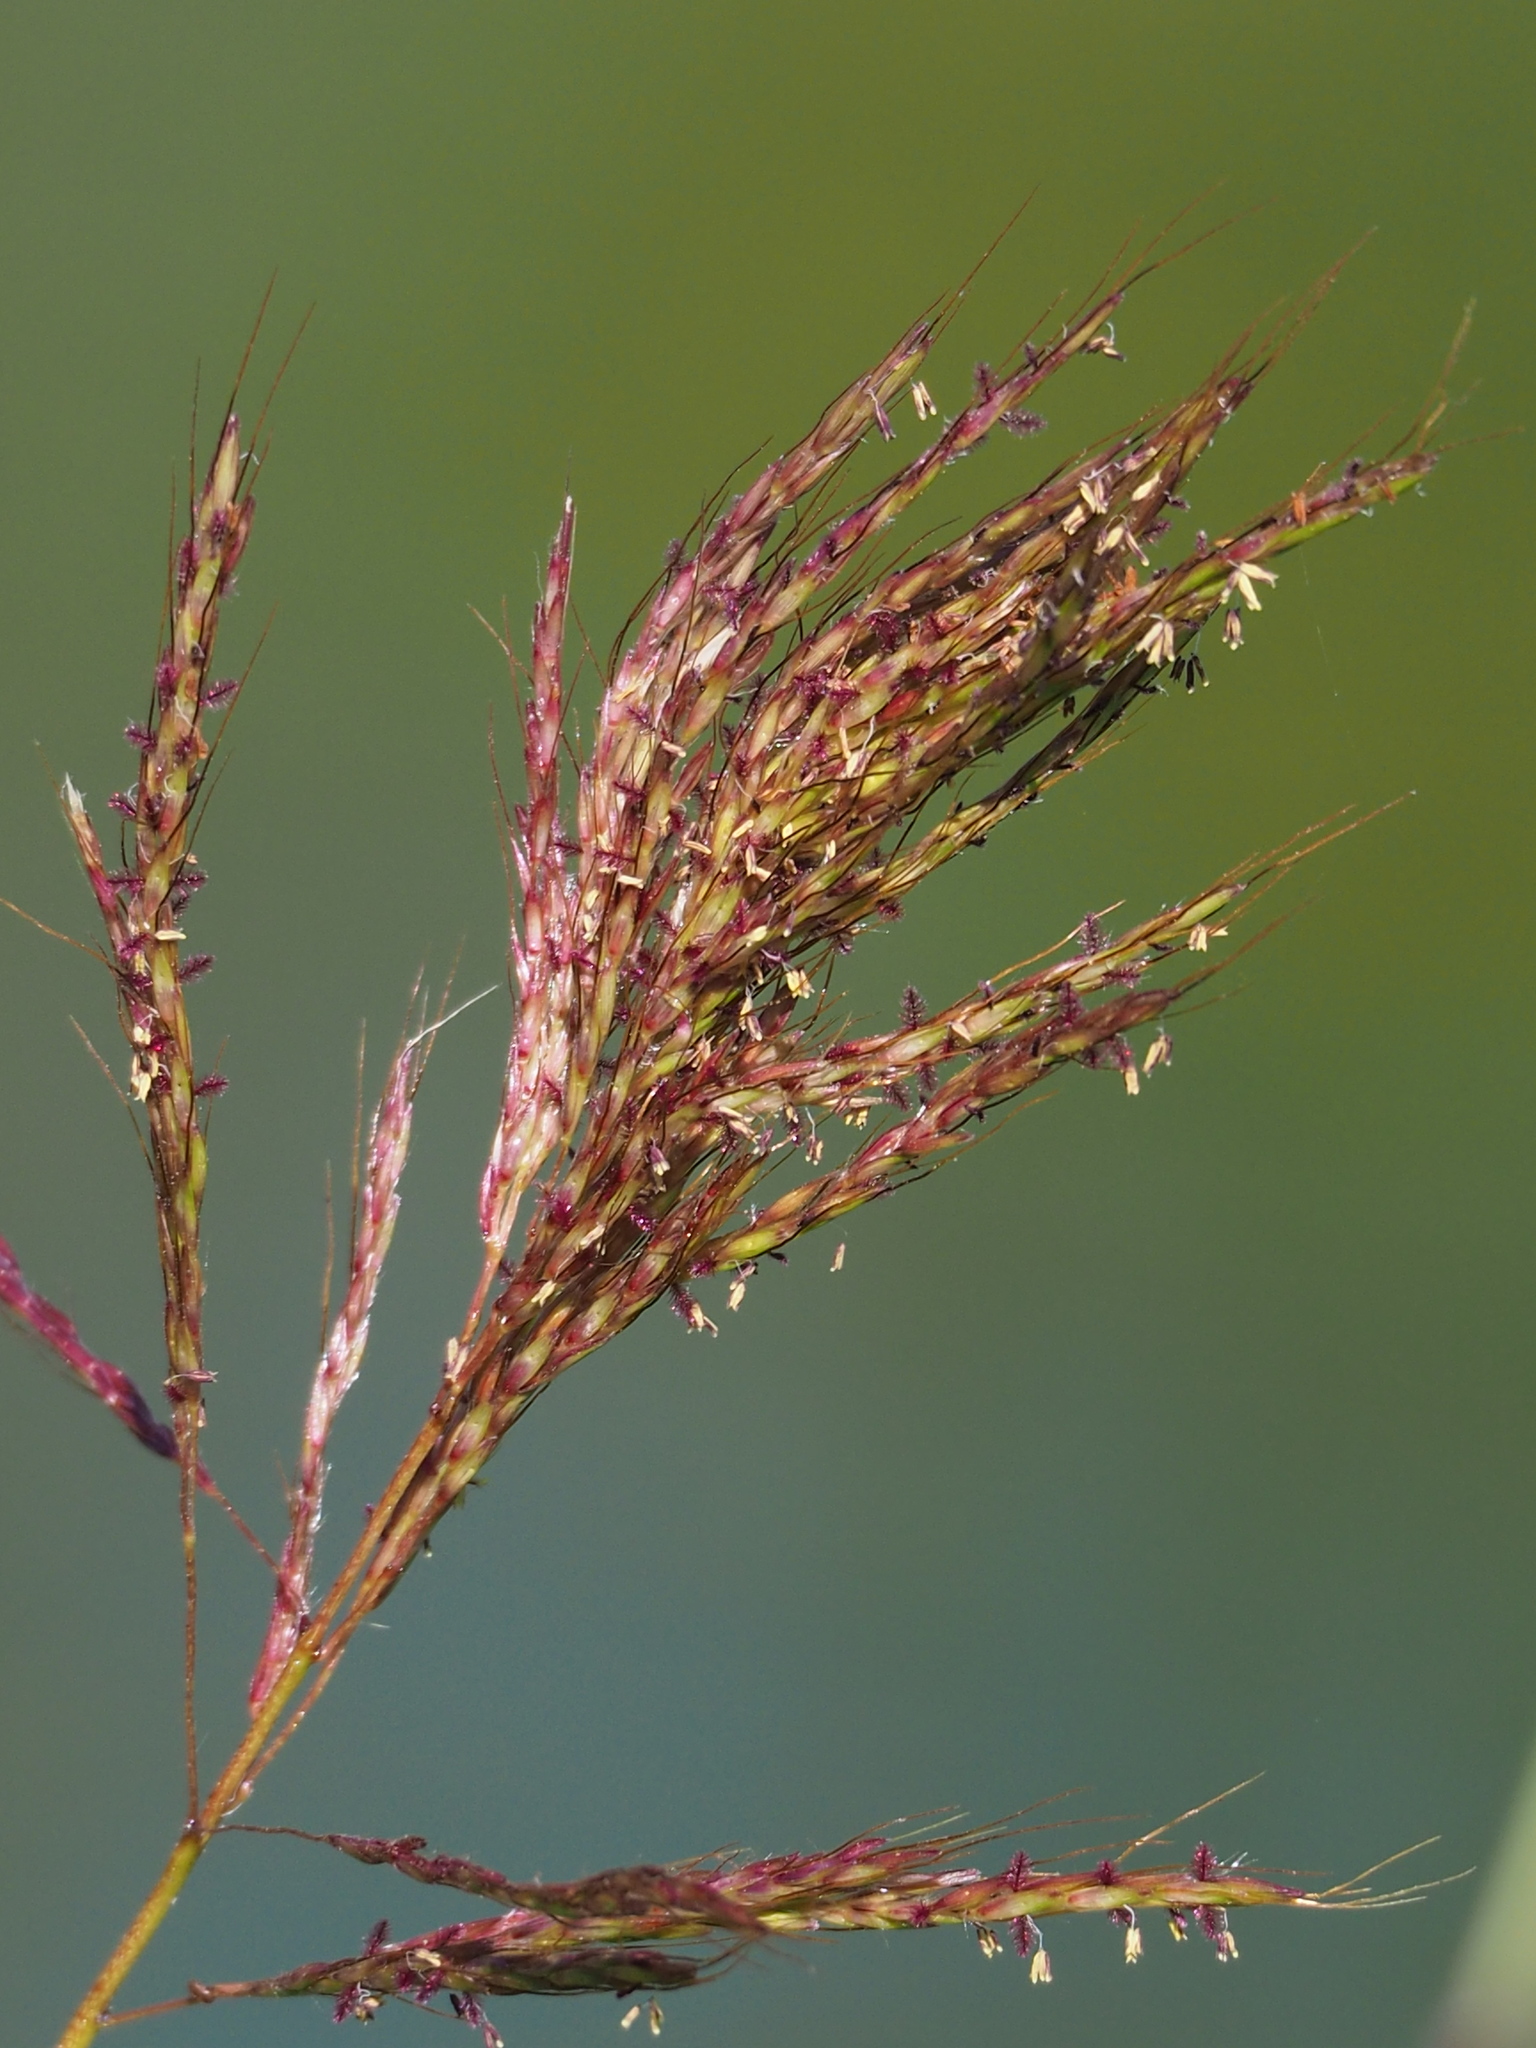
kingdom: Plantae
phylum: Tracheophyta
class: Liliopsida
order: Poales
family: Poaceae
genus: Bothriochloa
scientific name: Bothriochloa glabra
